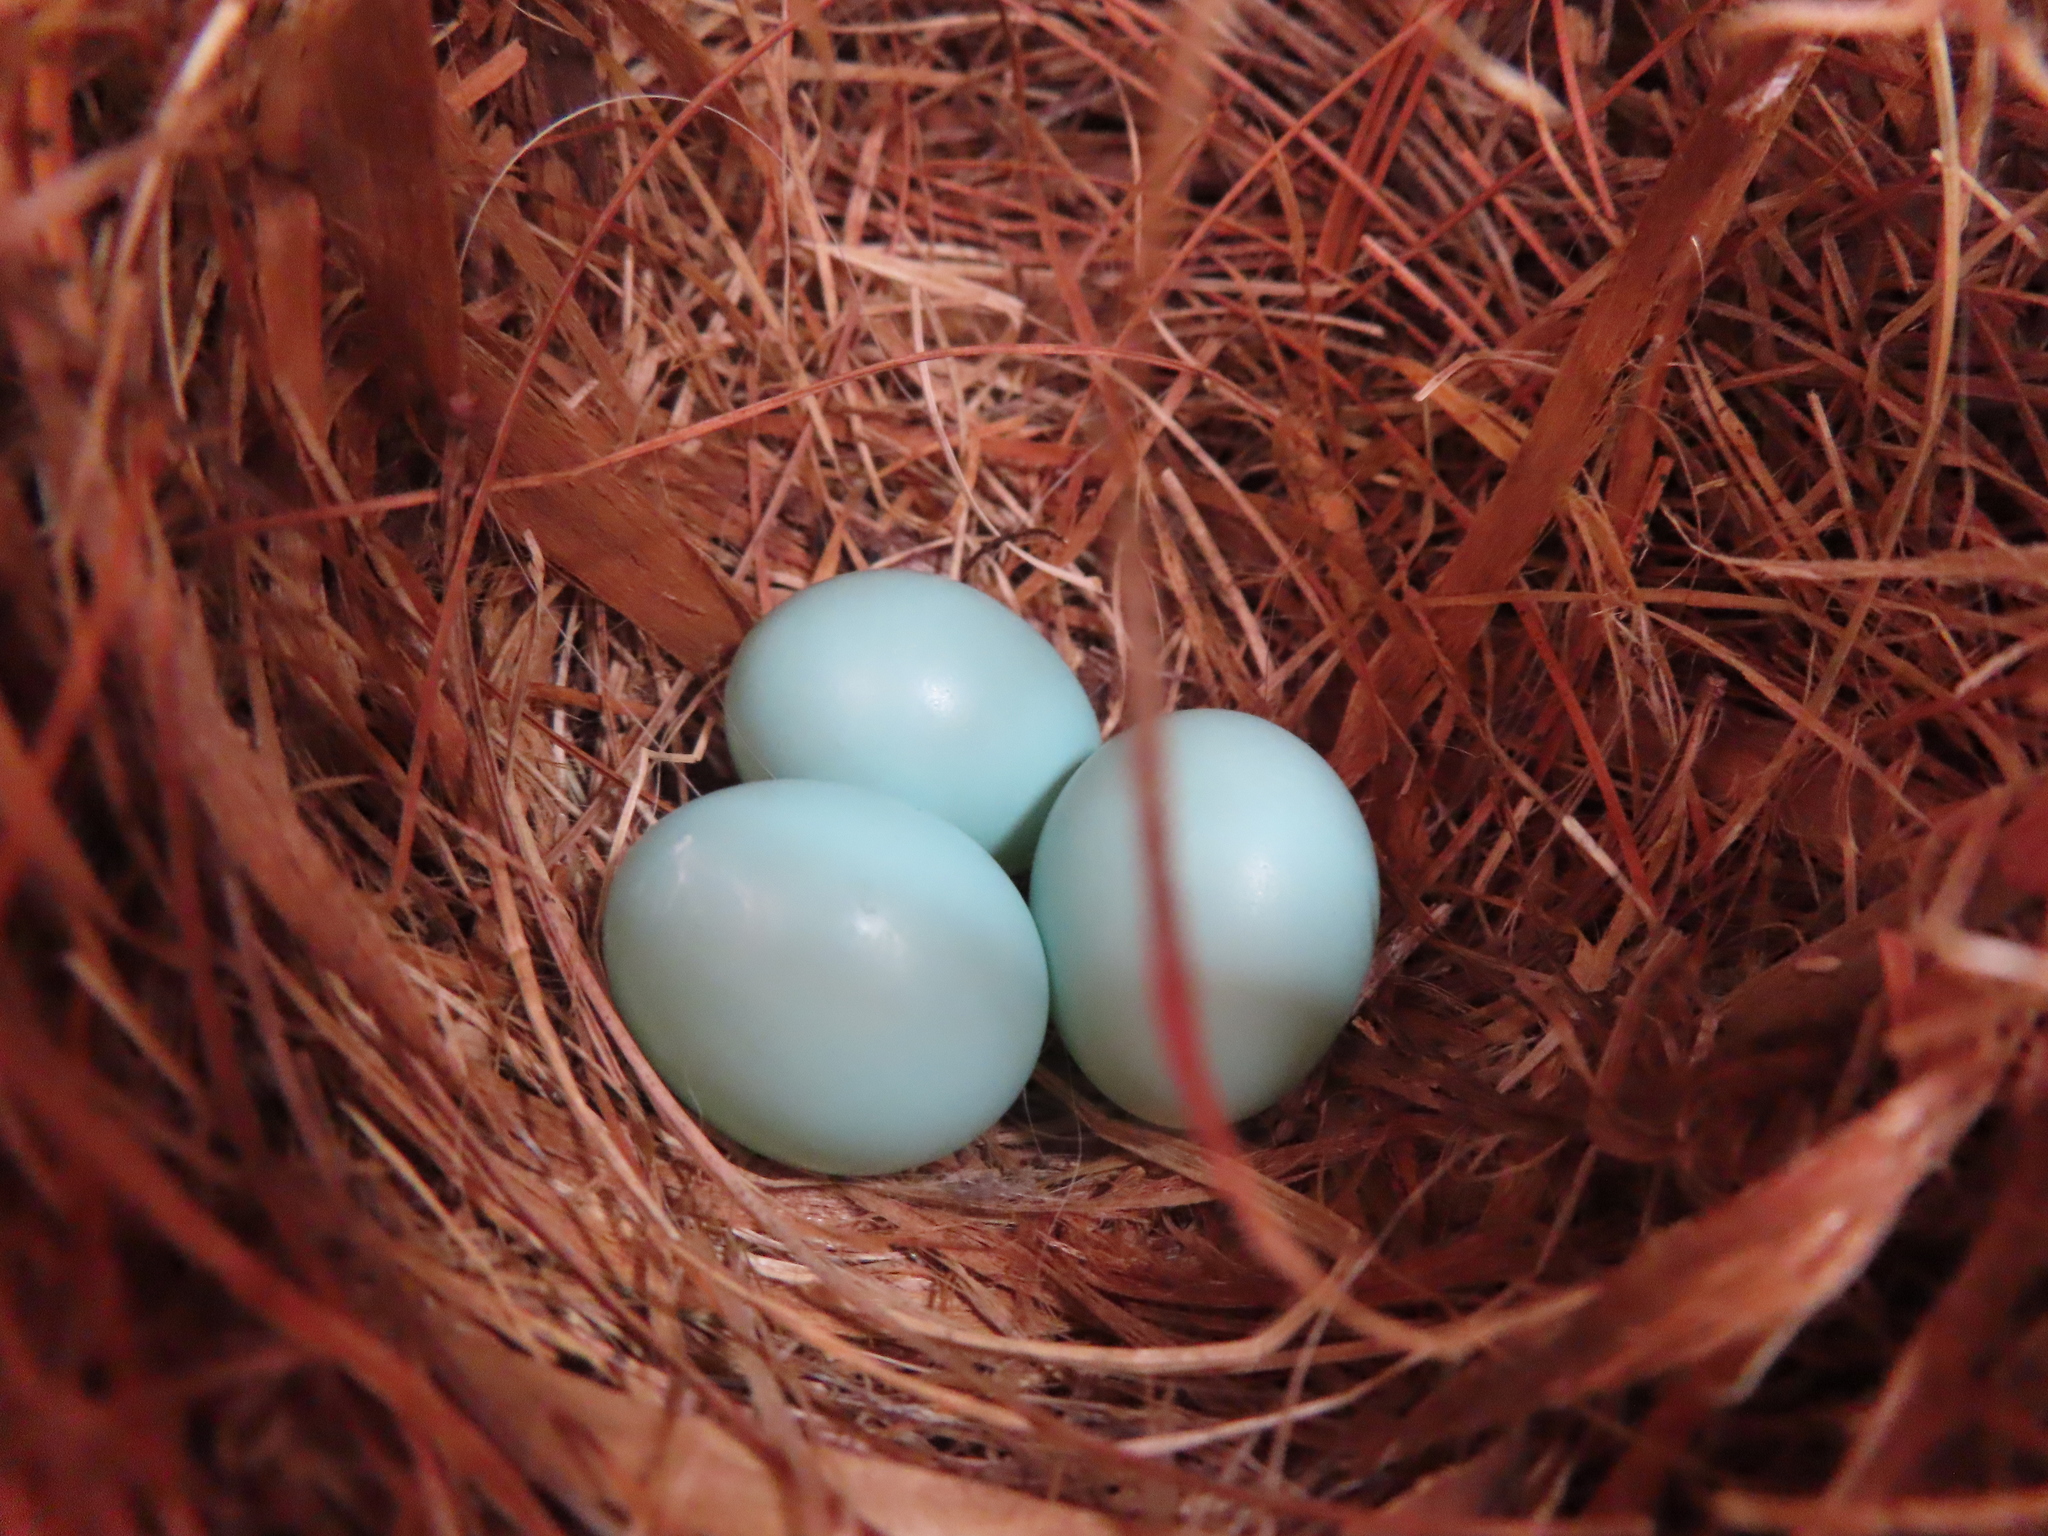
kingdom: Animalia
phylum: Chordata
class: Aves
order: Passeriformes
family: Turdidae
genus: Sialia
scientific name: Sialia sialis
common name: Eastern bluebird
